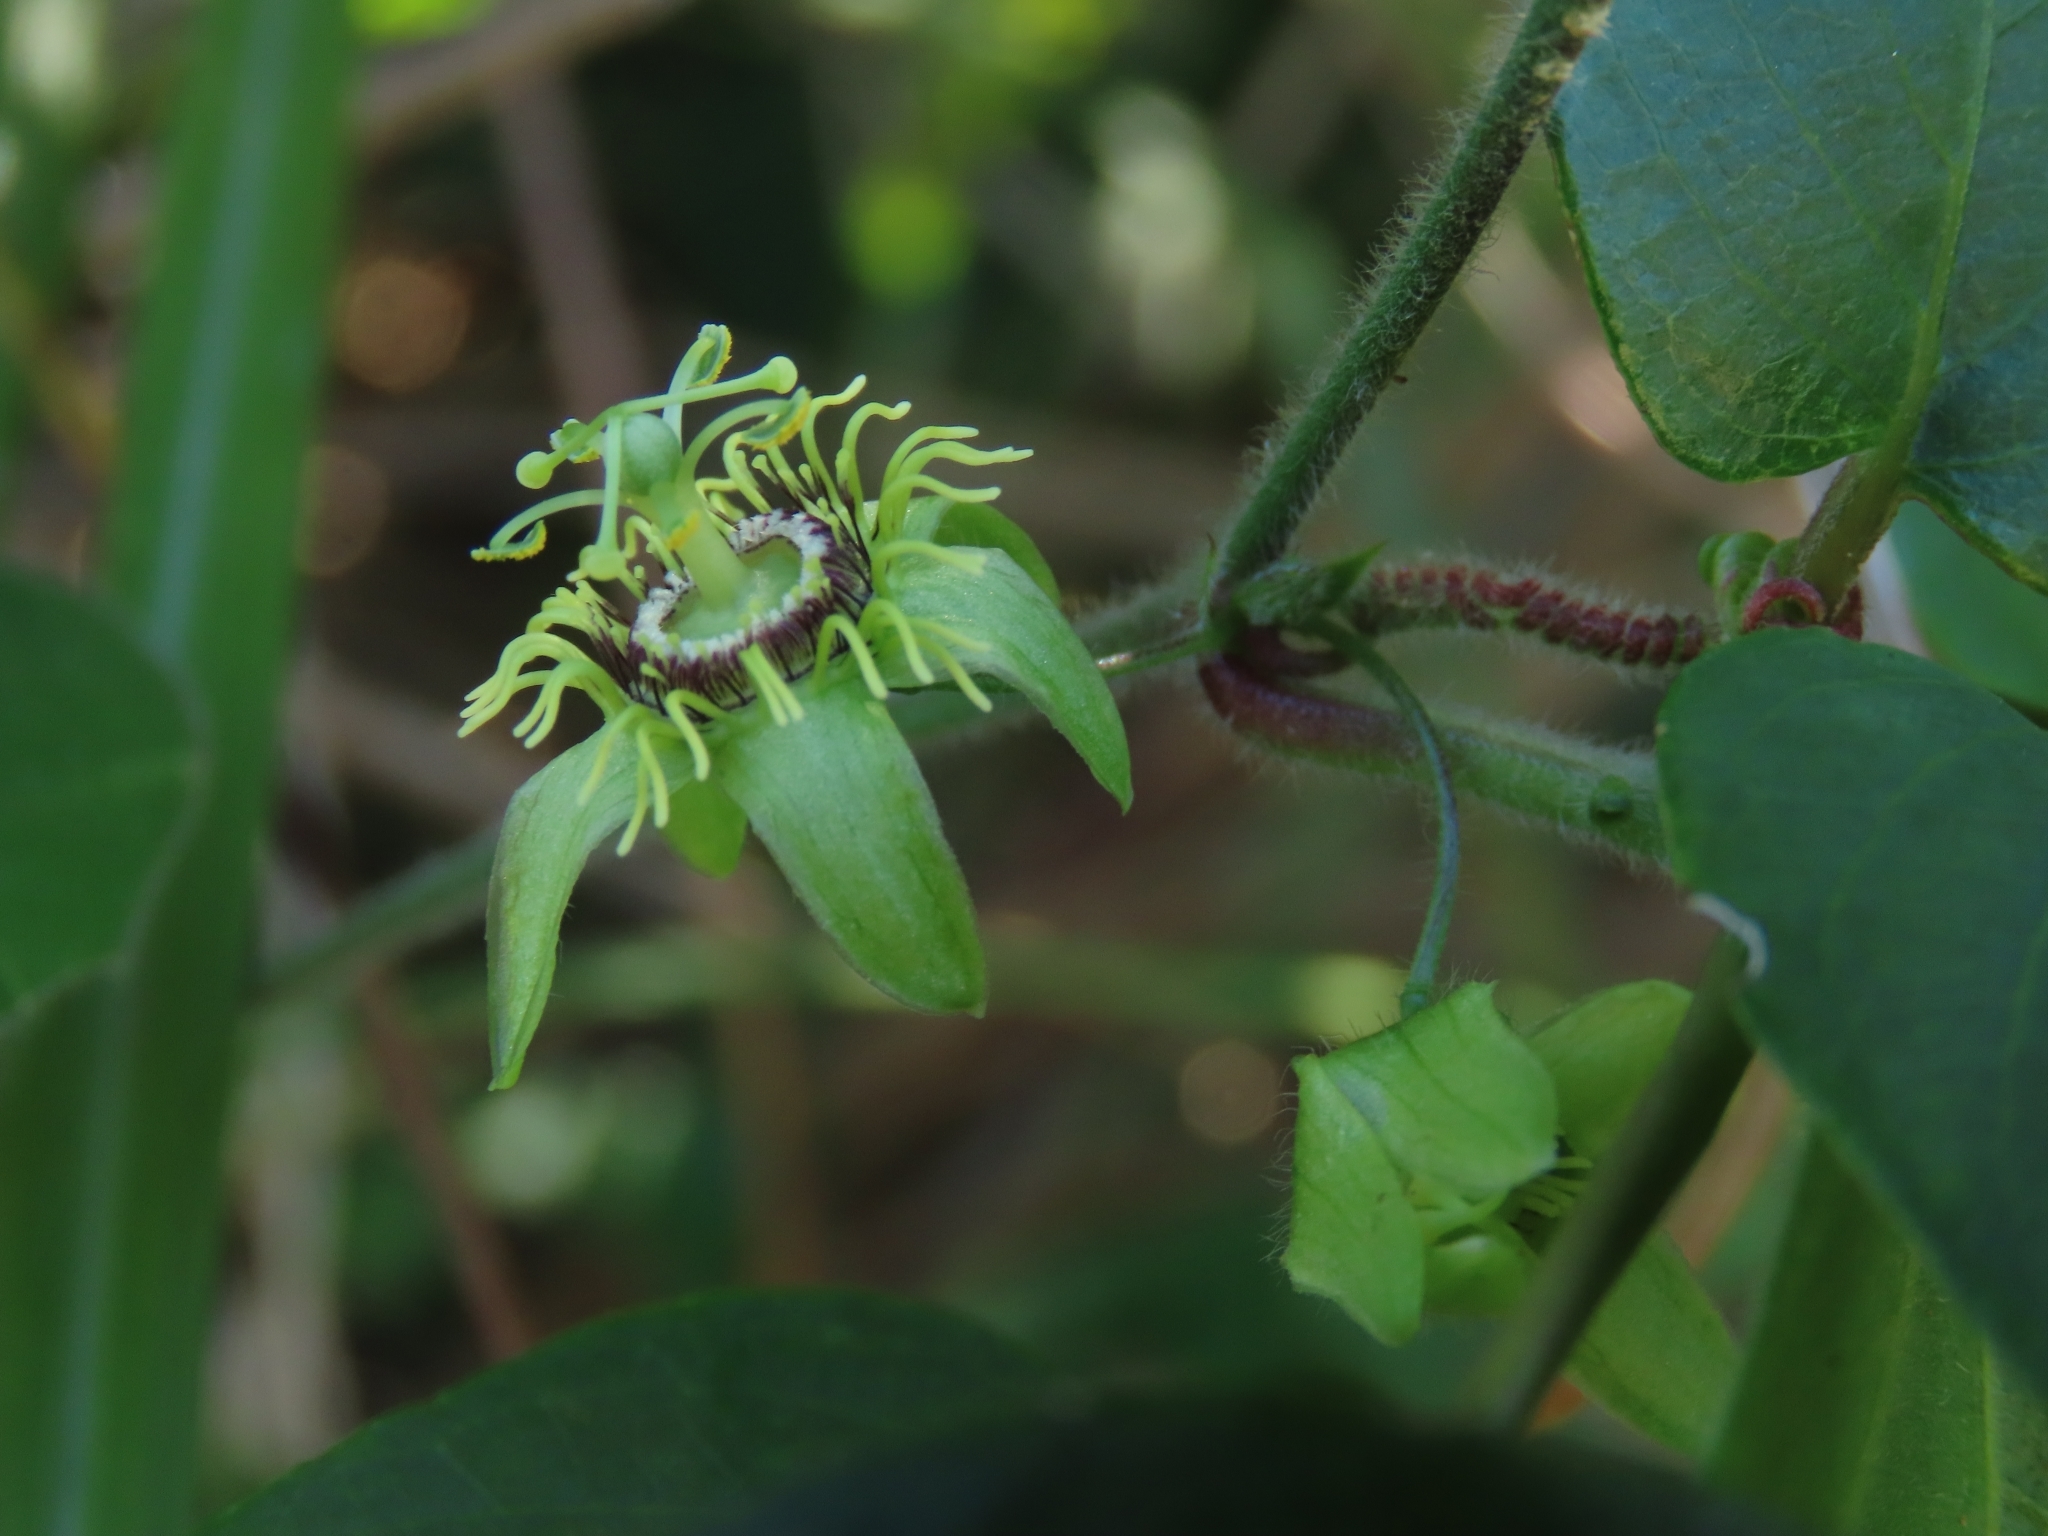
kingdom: Plantae
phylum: Tracheophyta
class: Magnoliopsida
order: Malpighiales
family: Passifloraceae
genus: Passiflora
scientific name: Passiflora suberosa
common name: Wild passionfruit
